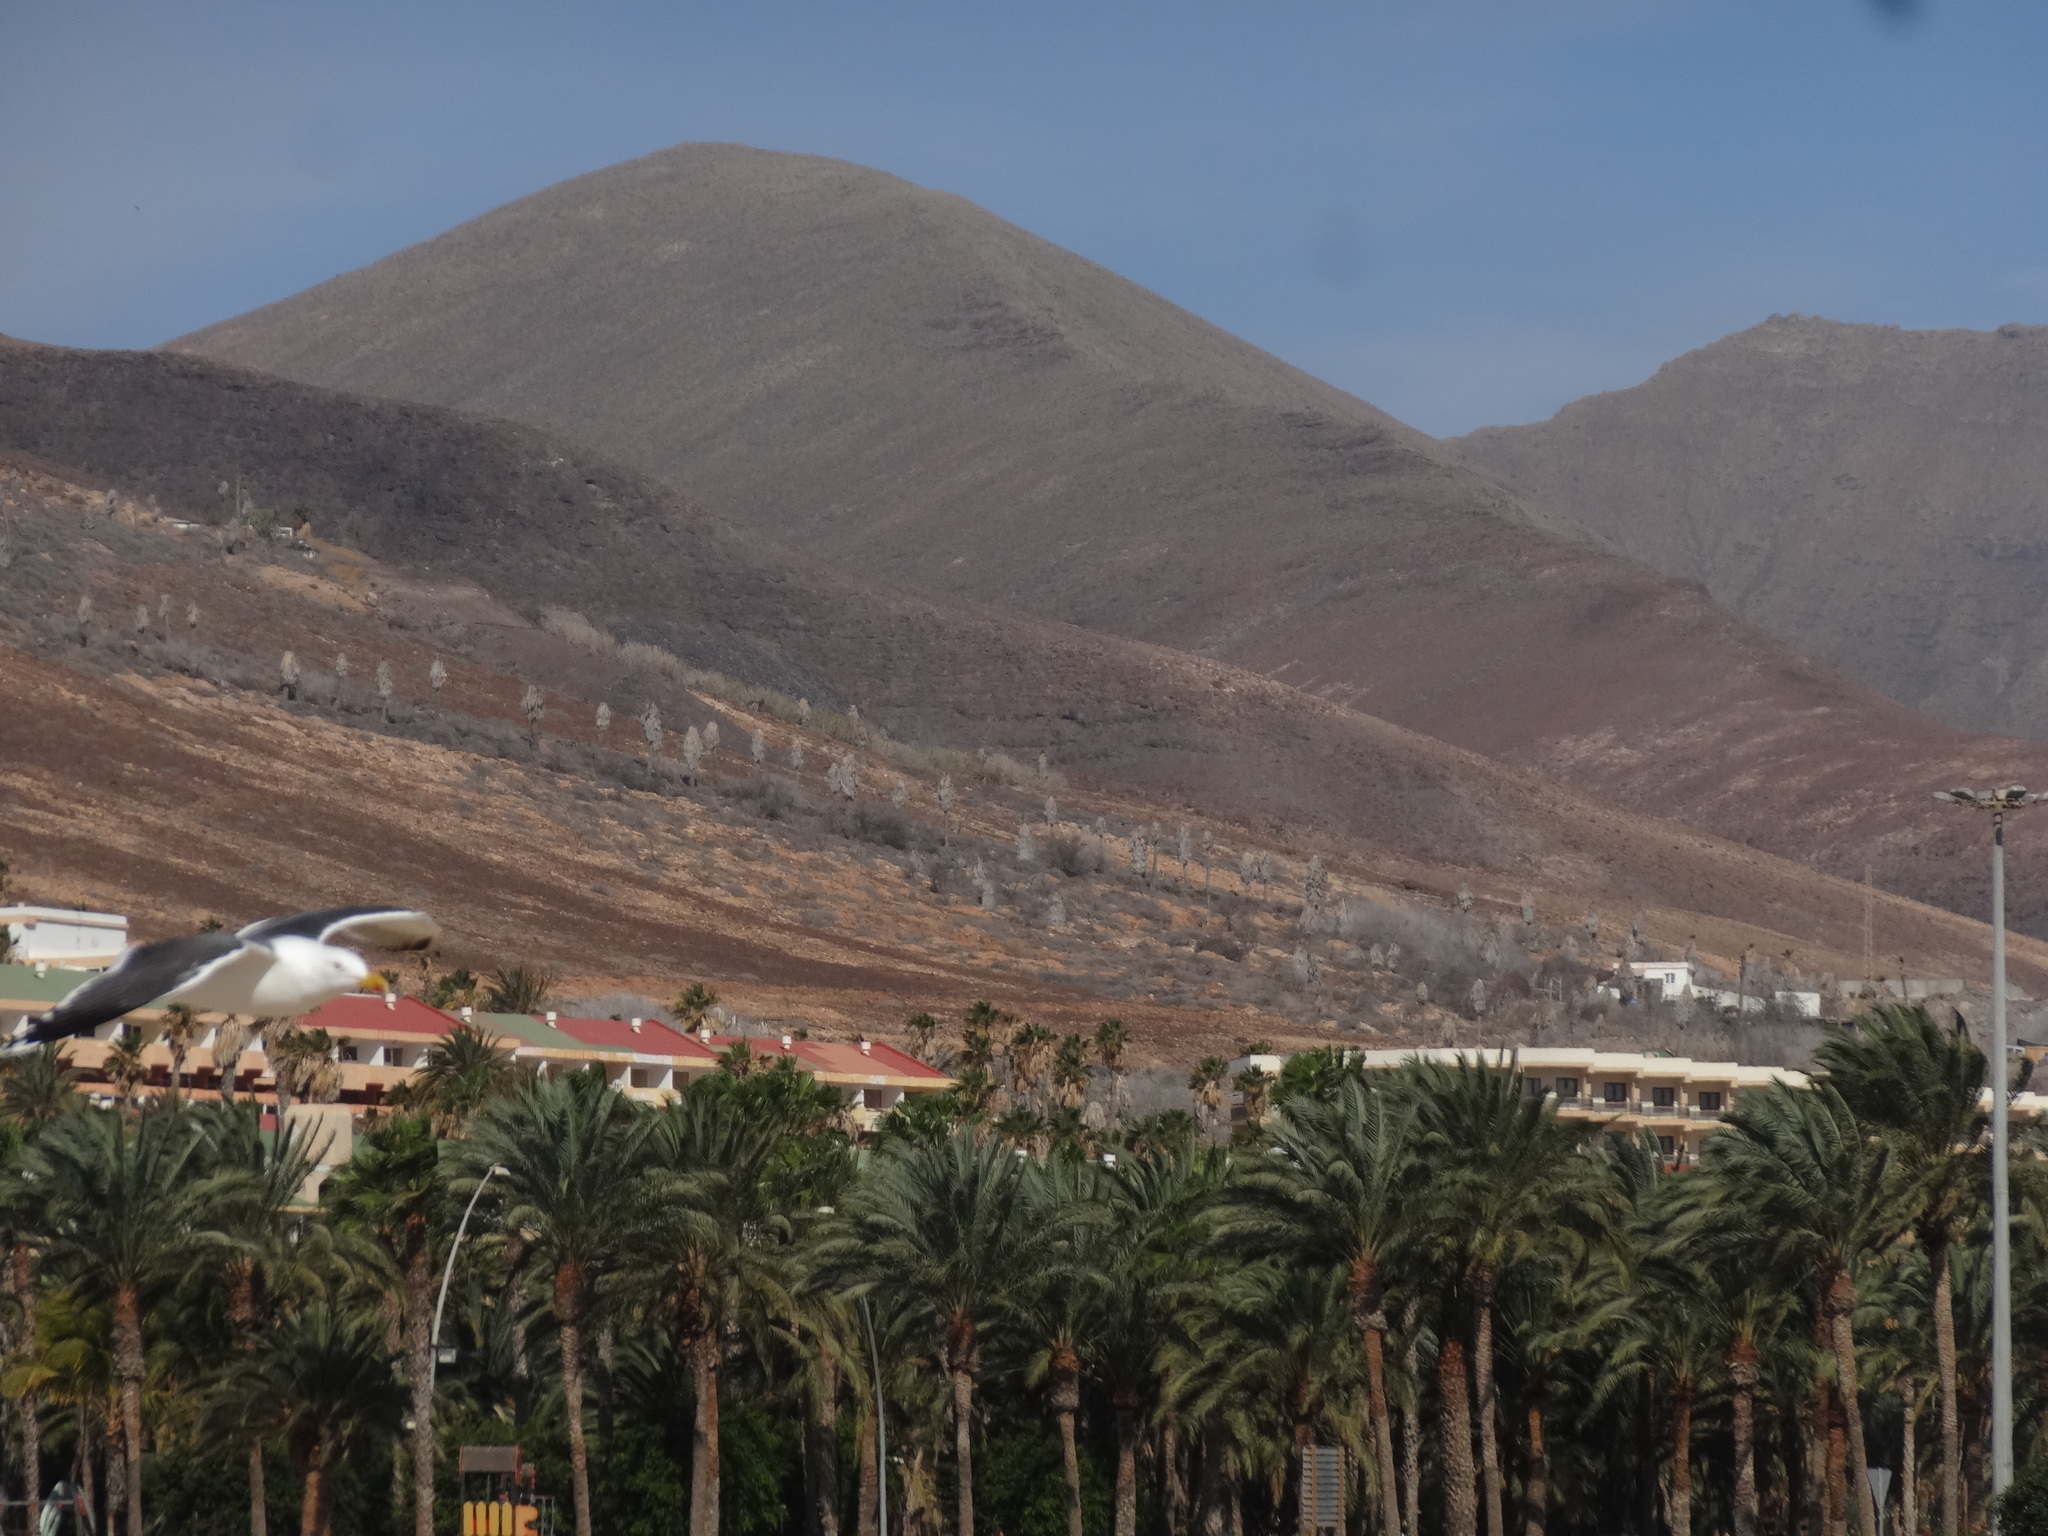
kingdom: Animalia
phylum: Chordata
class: Aves
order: Charadriiformes
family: Laridae
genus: Larus
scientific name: Larus fuscus
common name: Lesser black-backed gull
